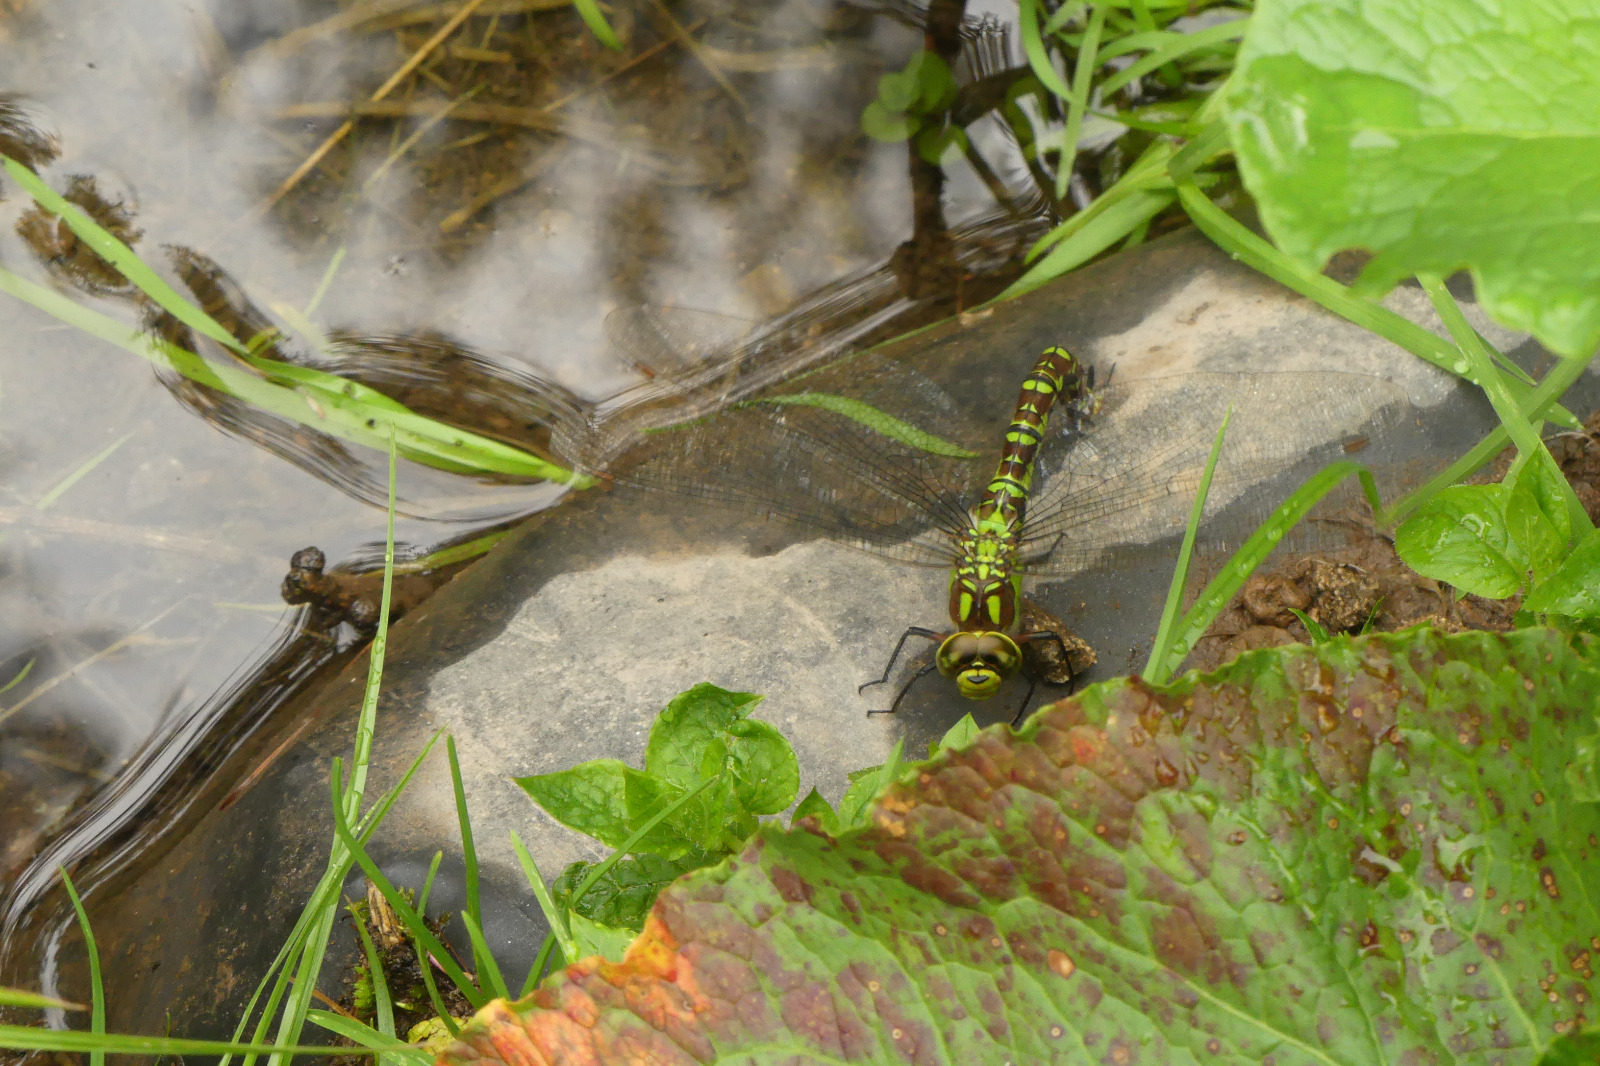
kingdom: Animalia
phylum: Arthropoda
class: Insecta
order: Odonata
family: Aeshnidae
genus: Aeshna
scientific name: Aeshna cyanea
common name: Southern hawker
